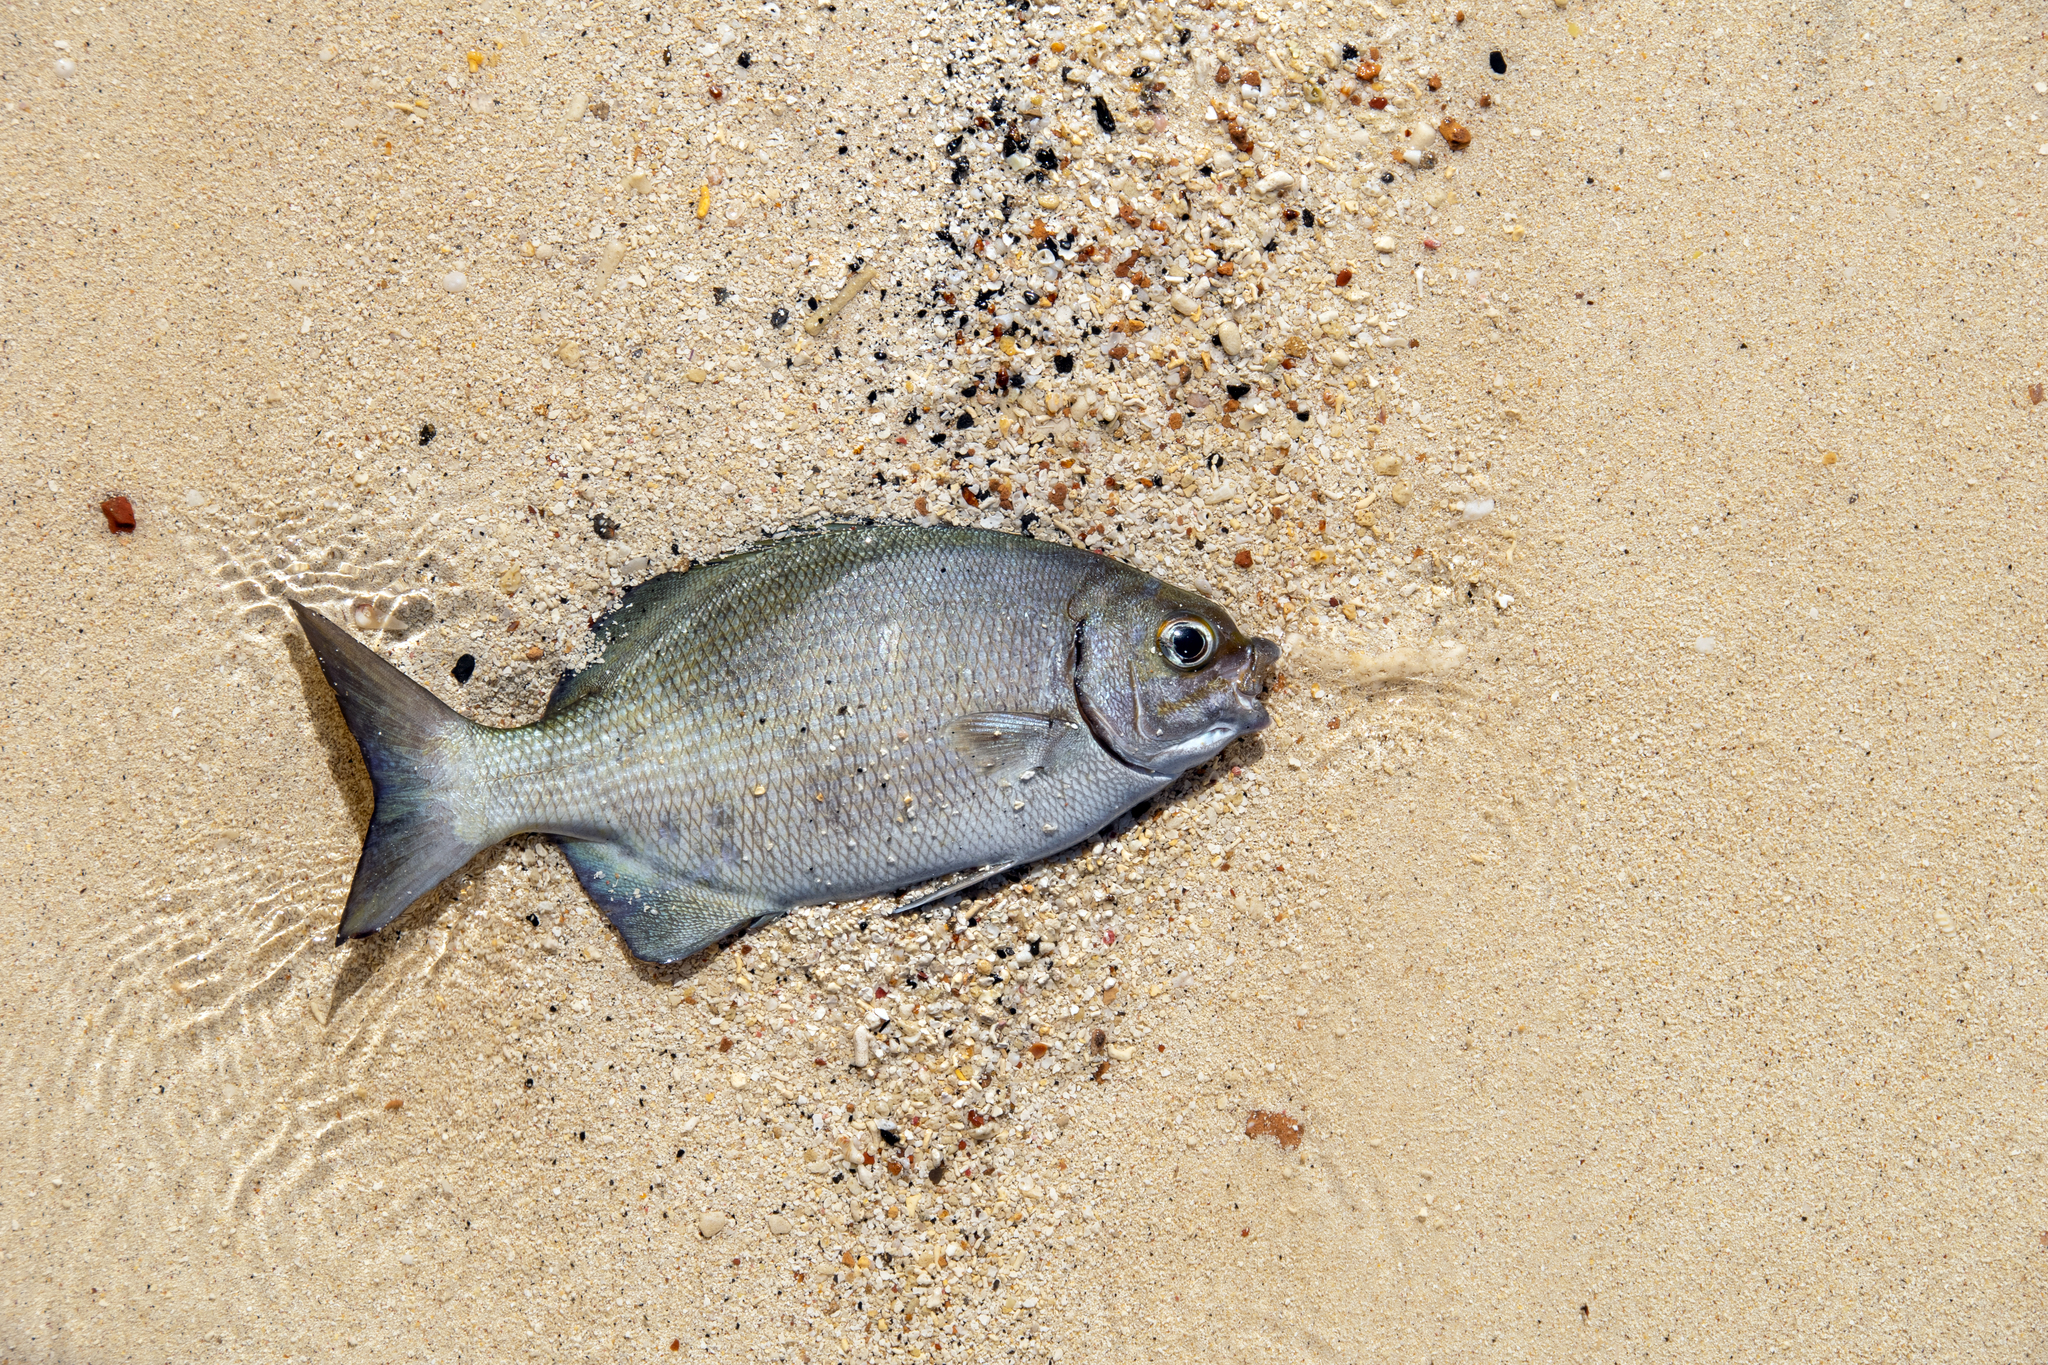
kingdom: Animalia
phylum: Chordata
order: Perciformes
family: Kyphosidae
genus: Kyphosus
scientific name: Kyphosus sectatrix
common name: Bermuda chub
